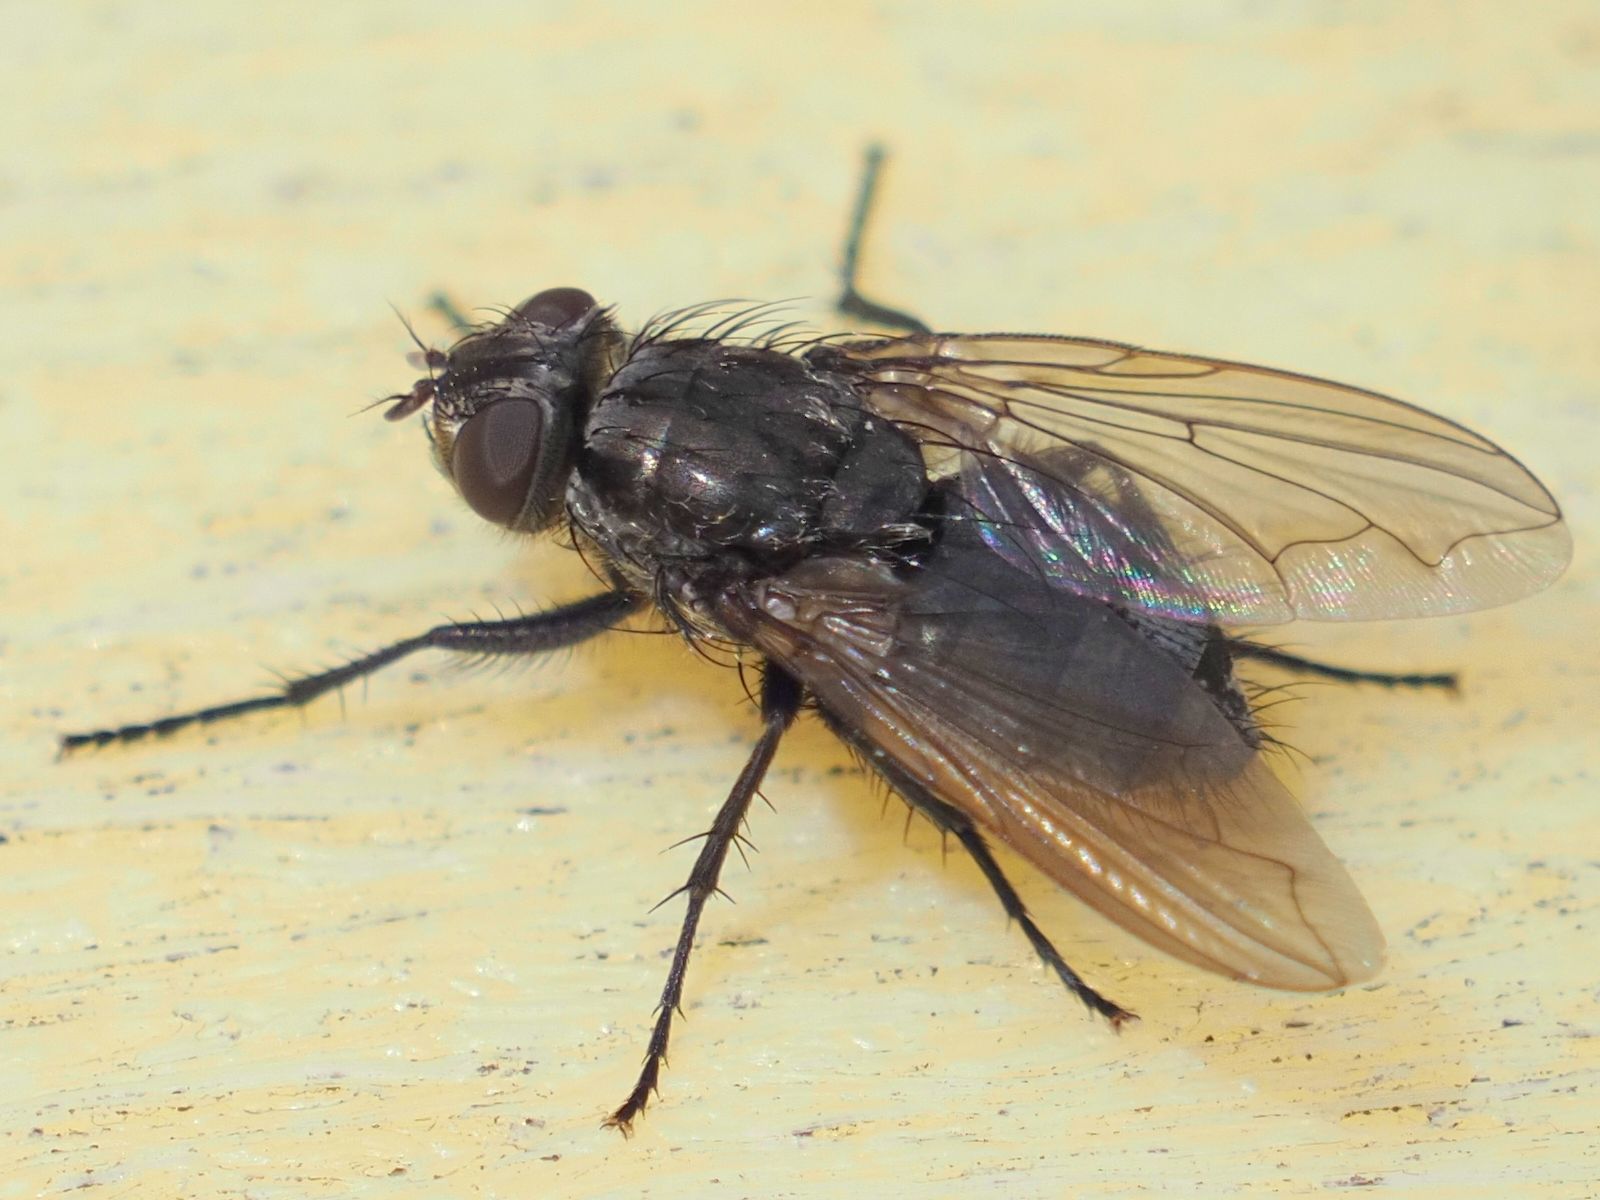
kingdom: Animalia
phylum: Arthropoda
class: Insecta
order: Diptera
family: Polleniidae
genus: Pollenia
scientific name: Pollenia vagabunda
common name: Vagabund cluster fly
